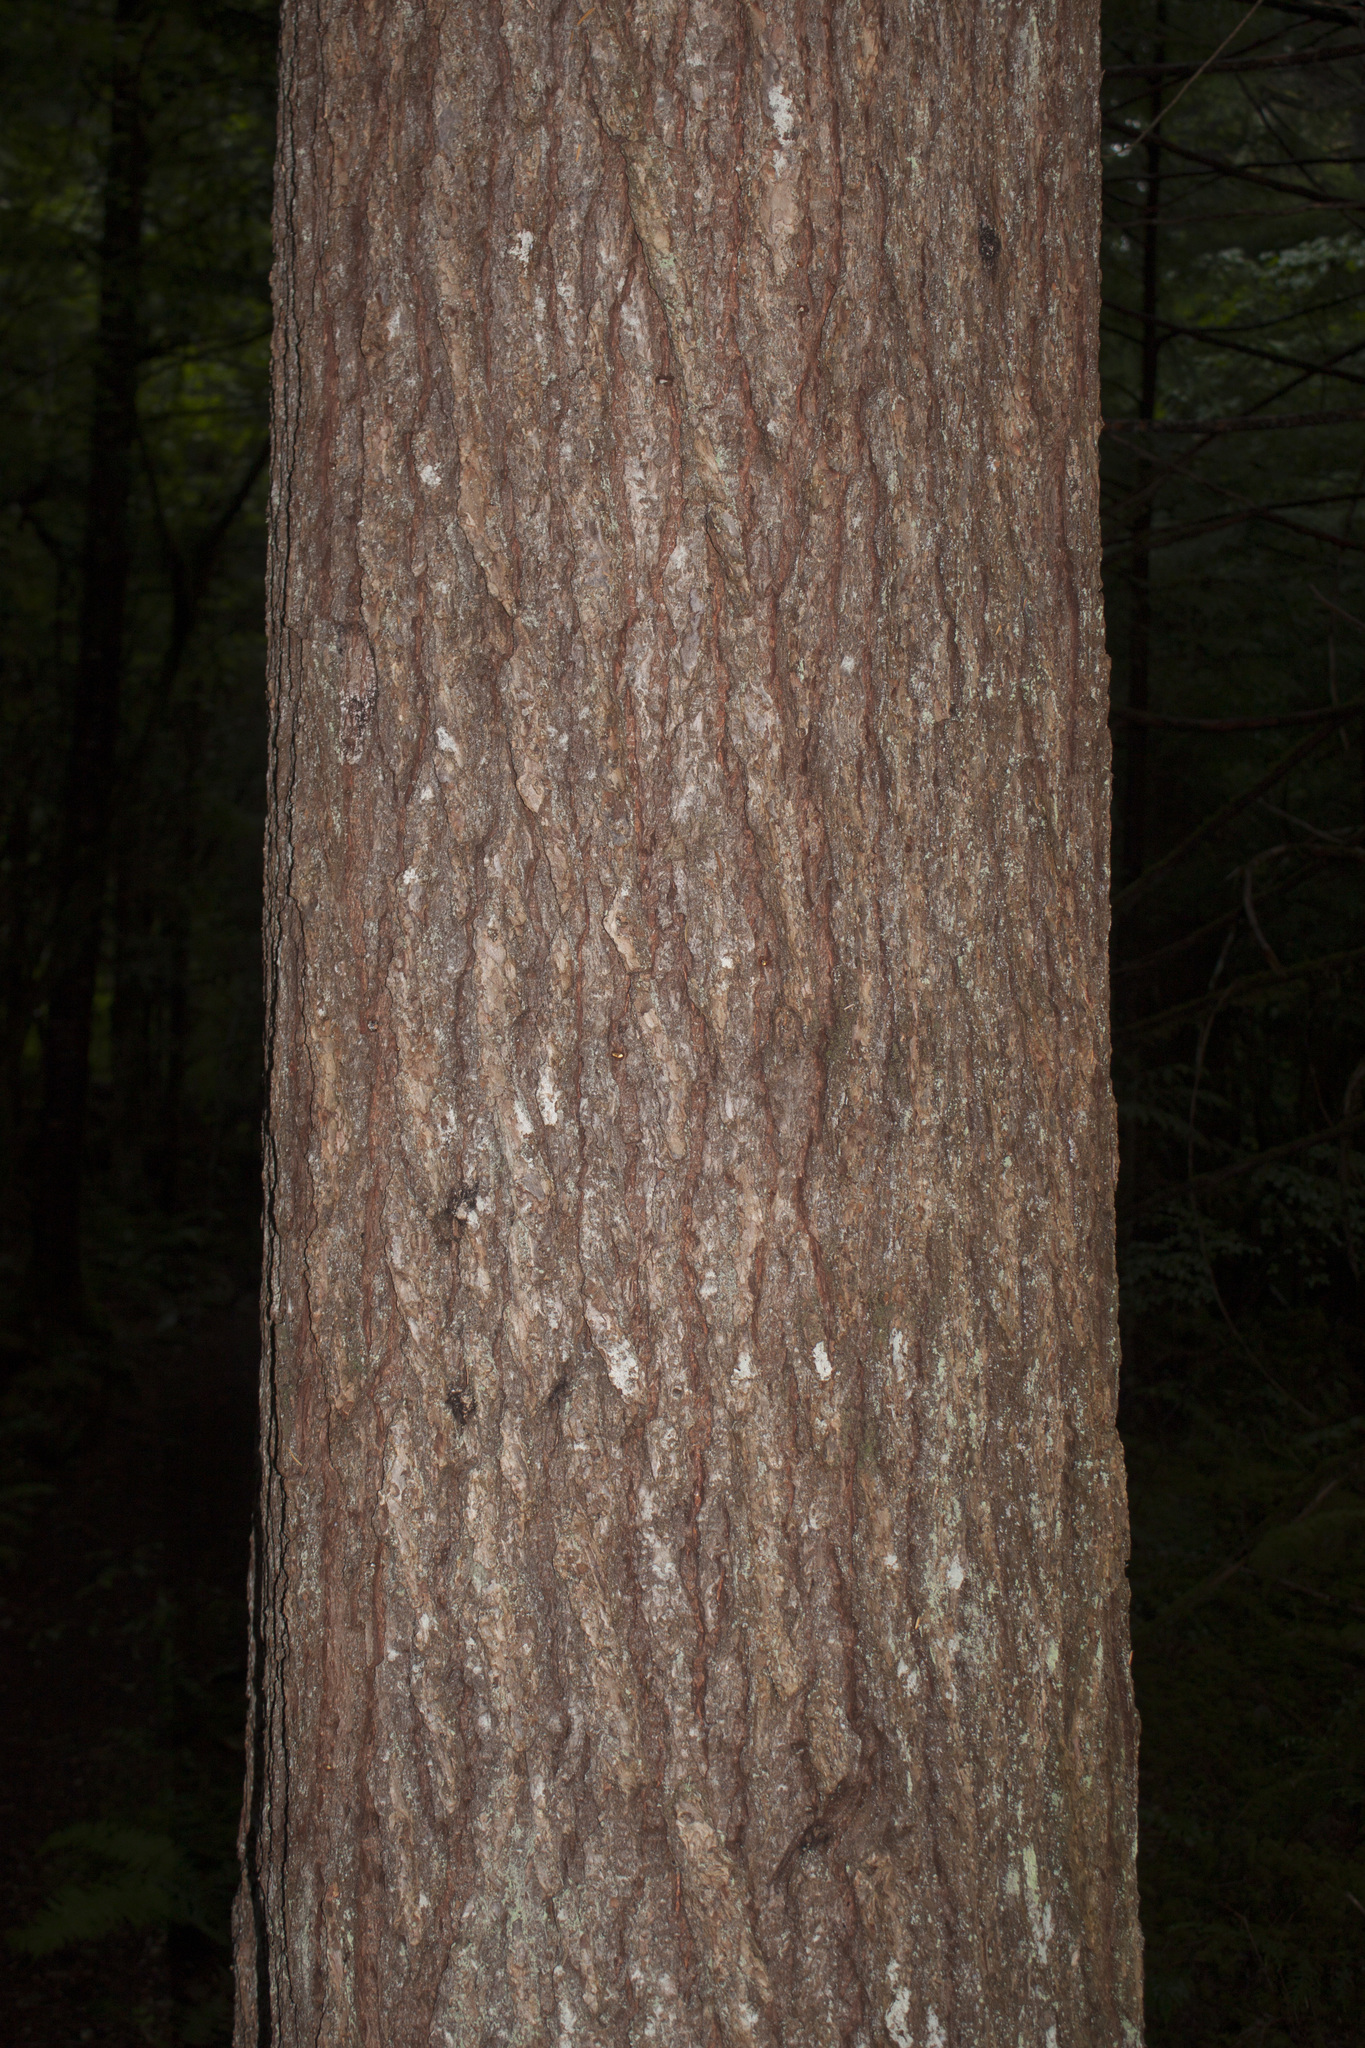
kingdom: Plantae
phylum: Tracheophyta
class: Pinopsida
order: Pinales
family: Pinaceae
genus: Tsuga
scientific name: Tsuga heterophylla
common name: Western hemlock
